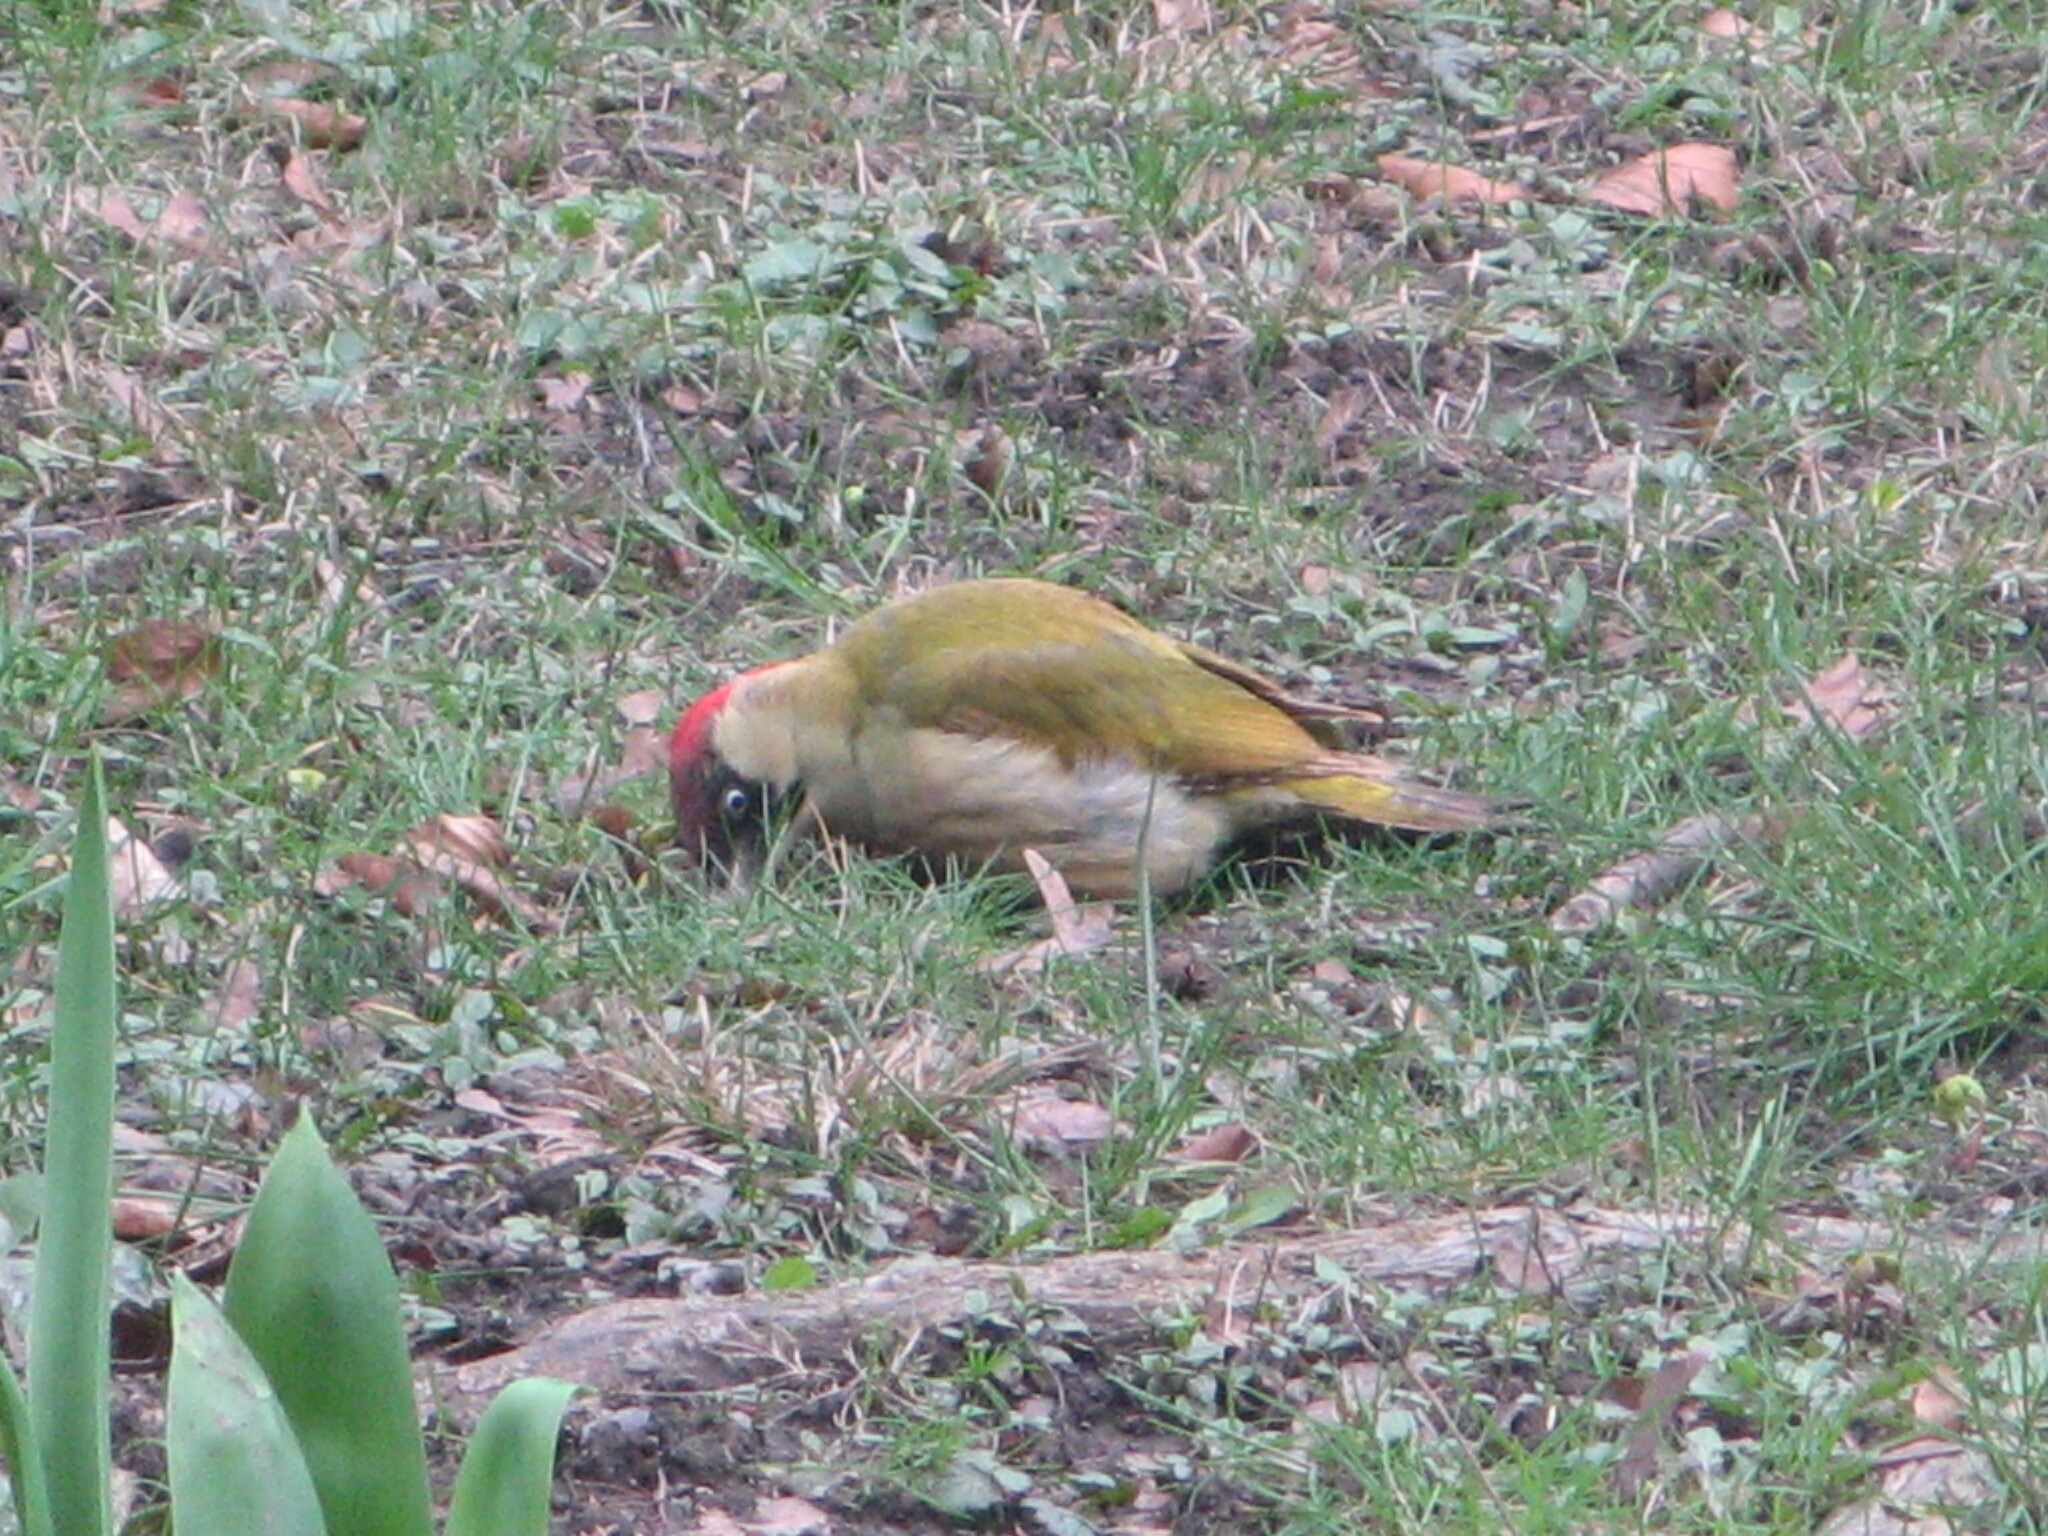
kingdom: Animalia
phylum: Chordata
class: Aves
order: Piciformes
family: Picidae
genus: Picus
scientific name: Picus viridis
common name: European green woodpecker
